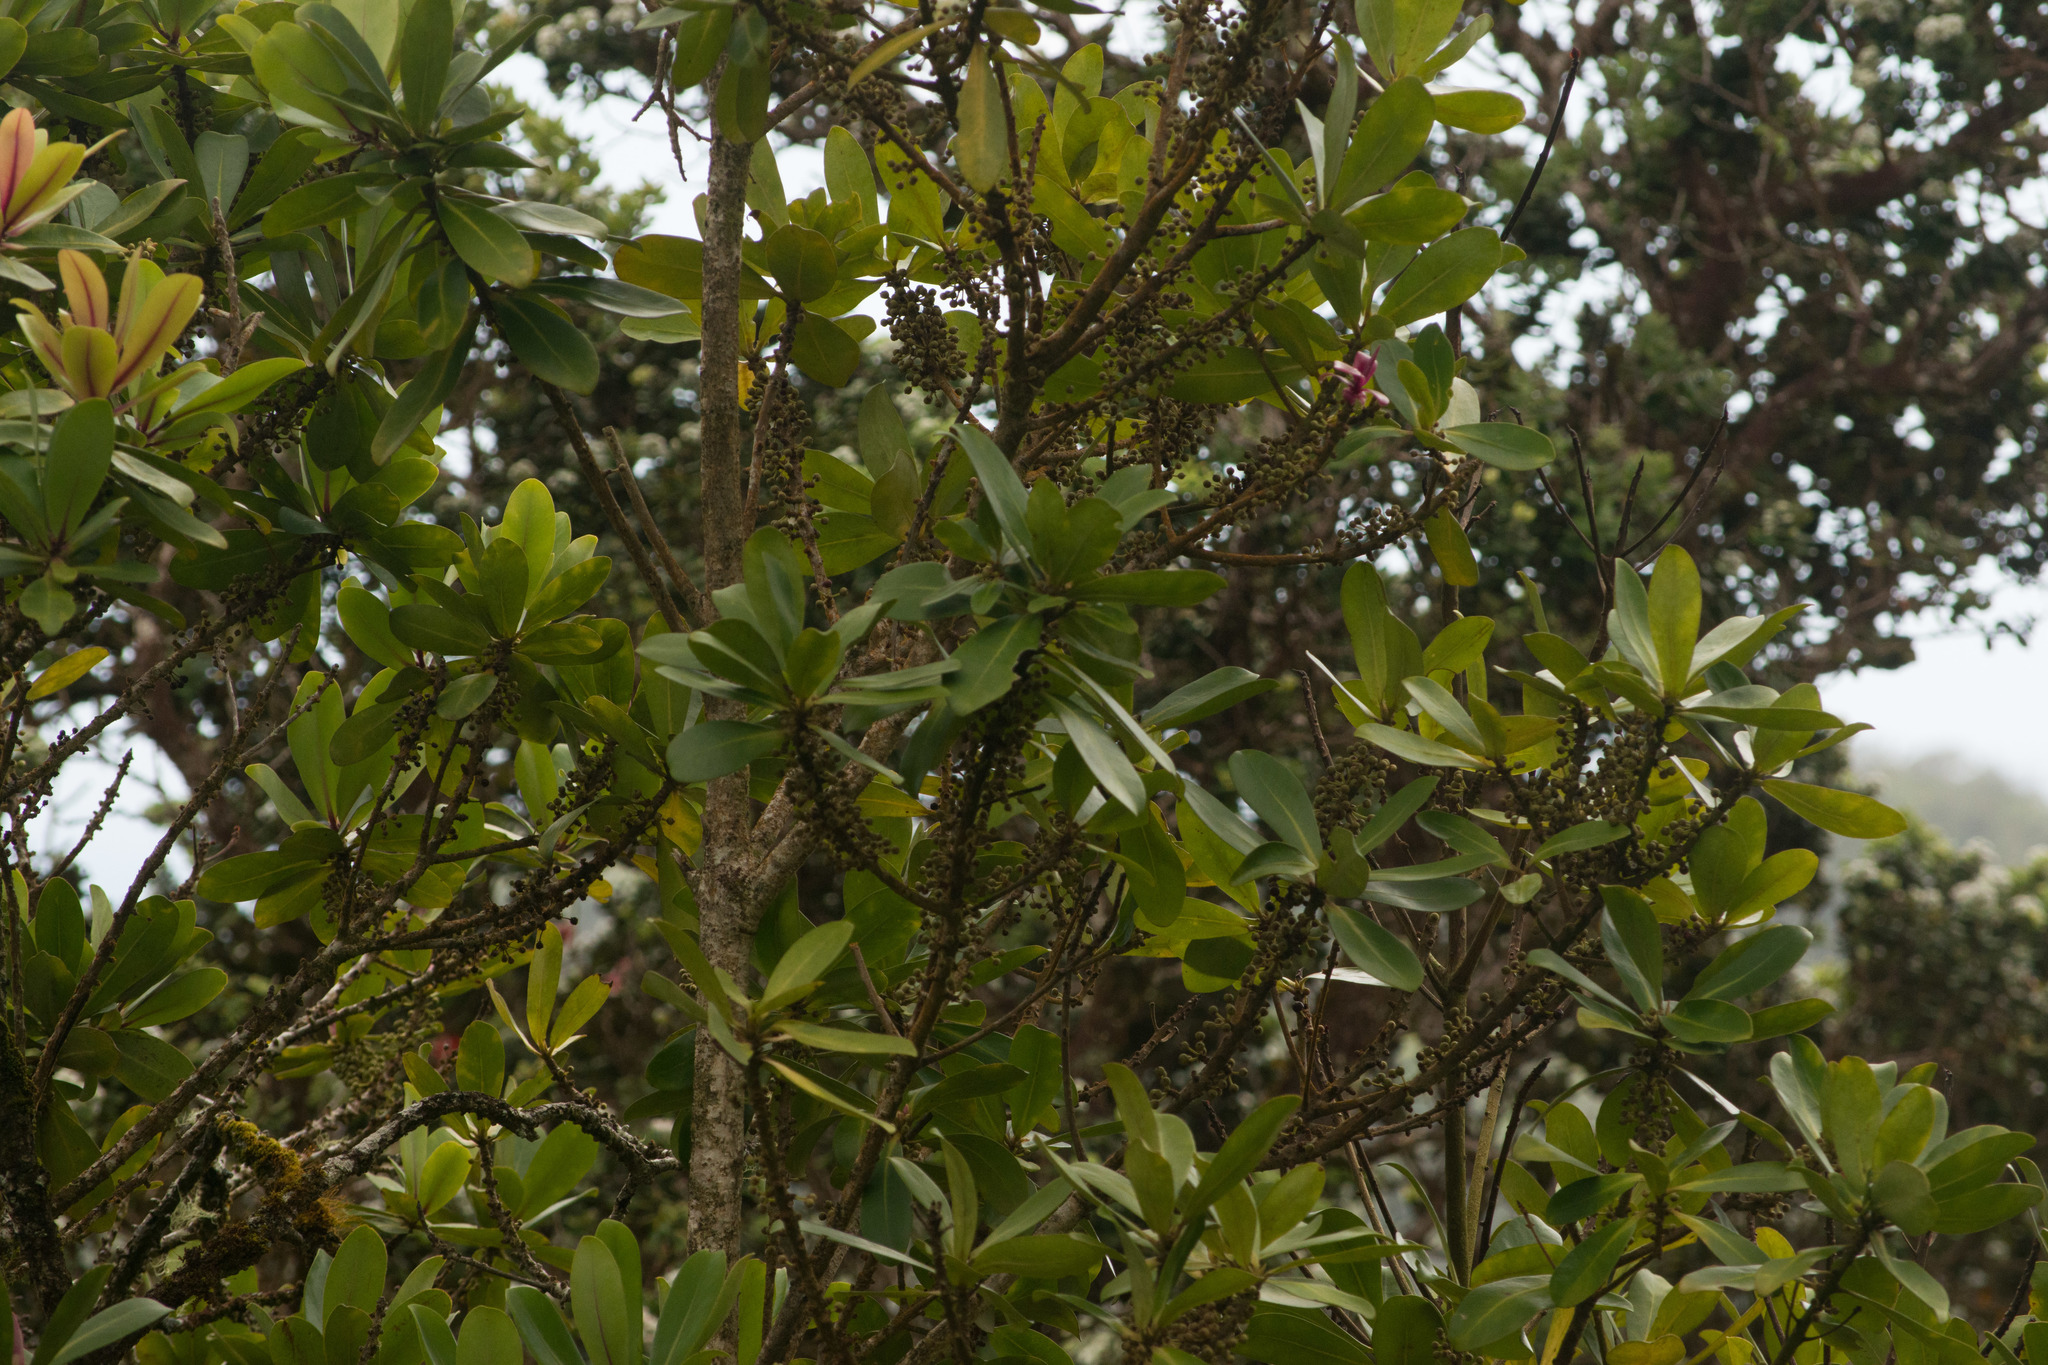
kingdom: Plantae
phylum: Tracheophyta
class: Magnoliopsida
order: Ericales
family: Primulaceae
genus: Myrsine
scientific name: Myrsine lessertiana
